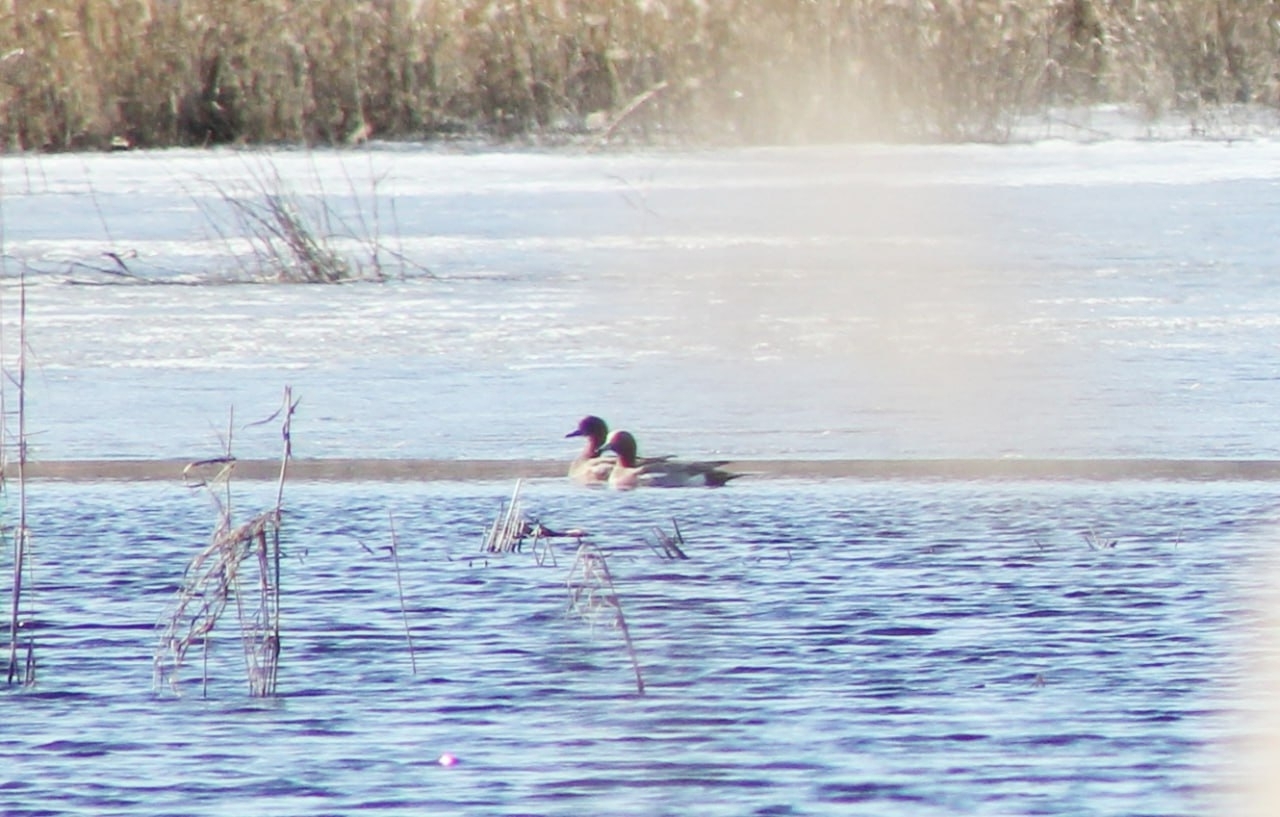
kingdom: Animalia
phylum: Chordata
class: Aves
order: Anseriformes
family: Anatidae
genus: Mareca
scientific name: Mareca penelope
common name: Eurasian wigeon
